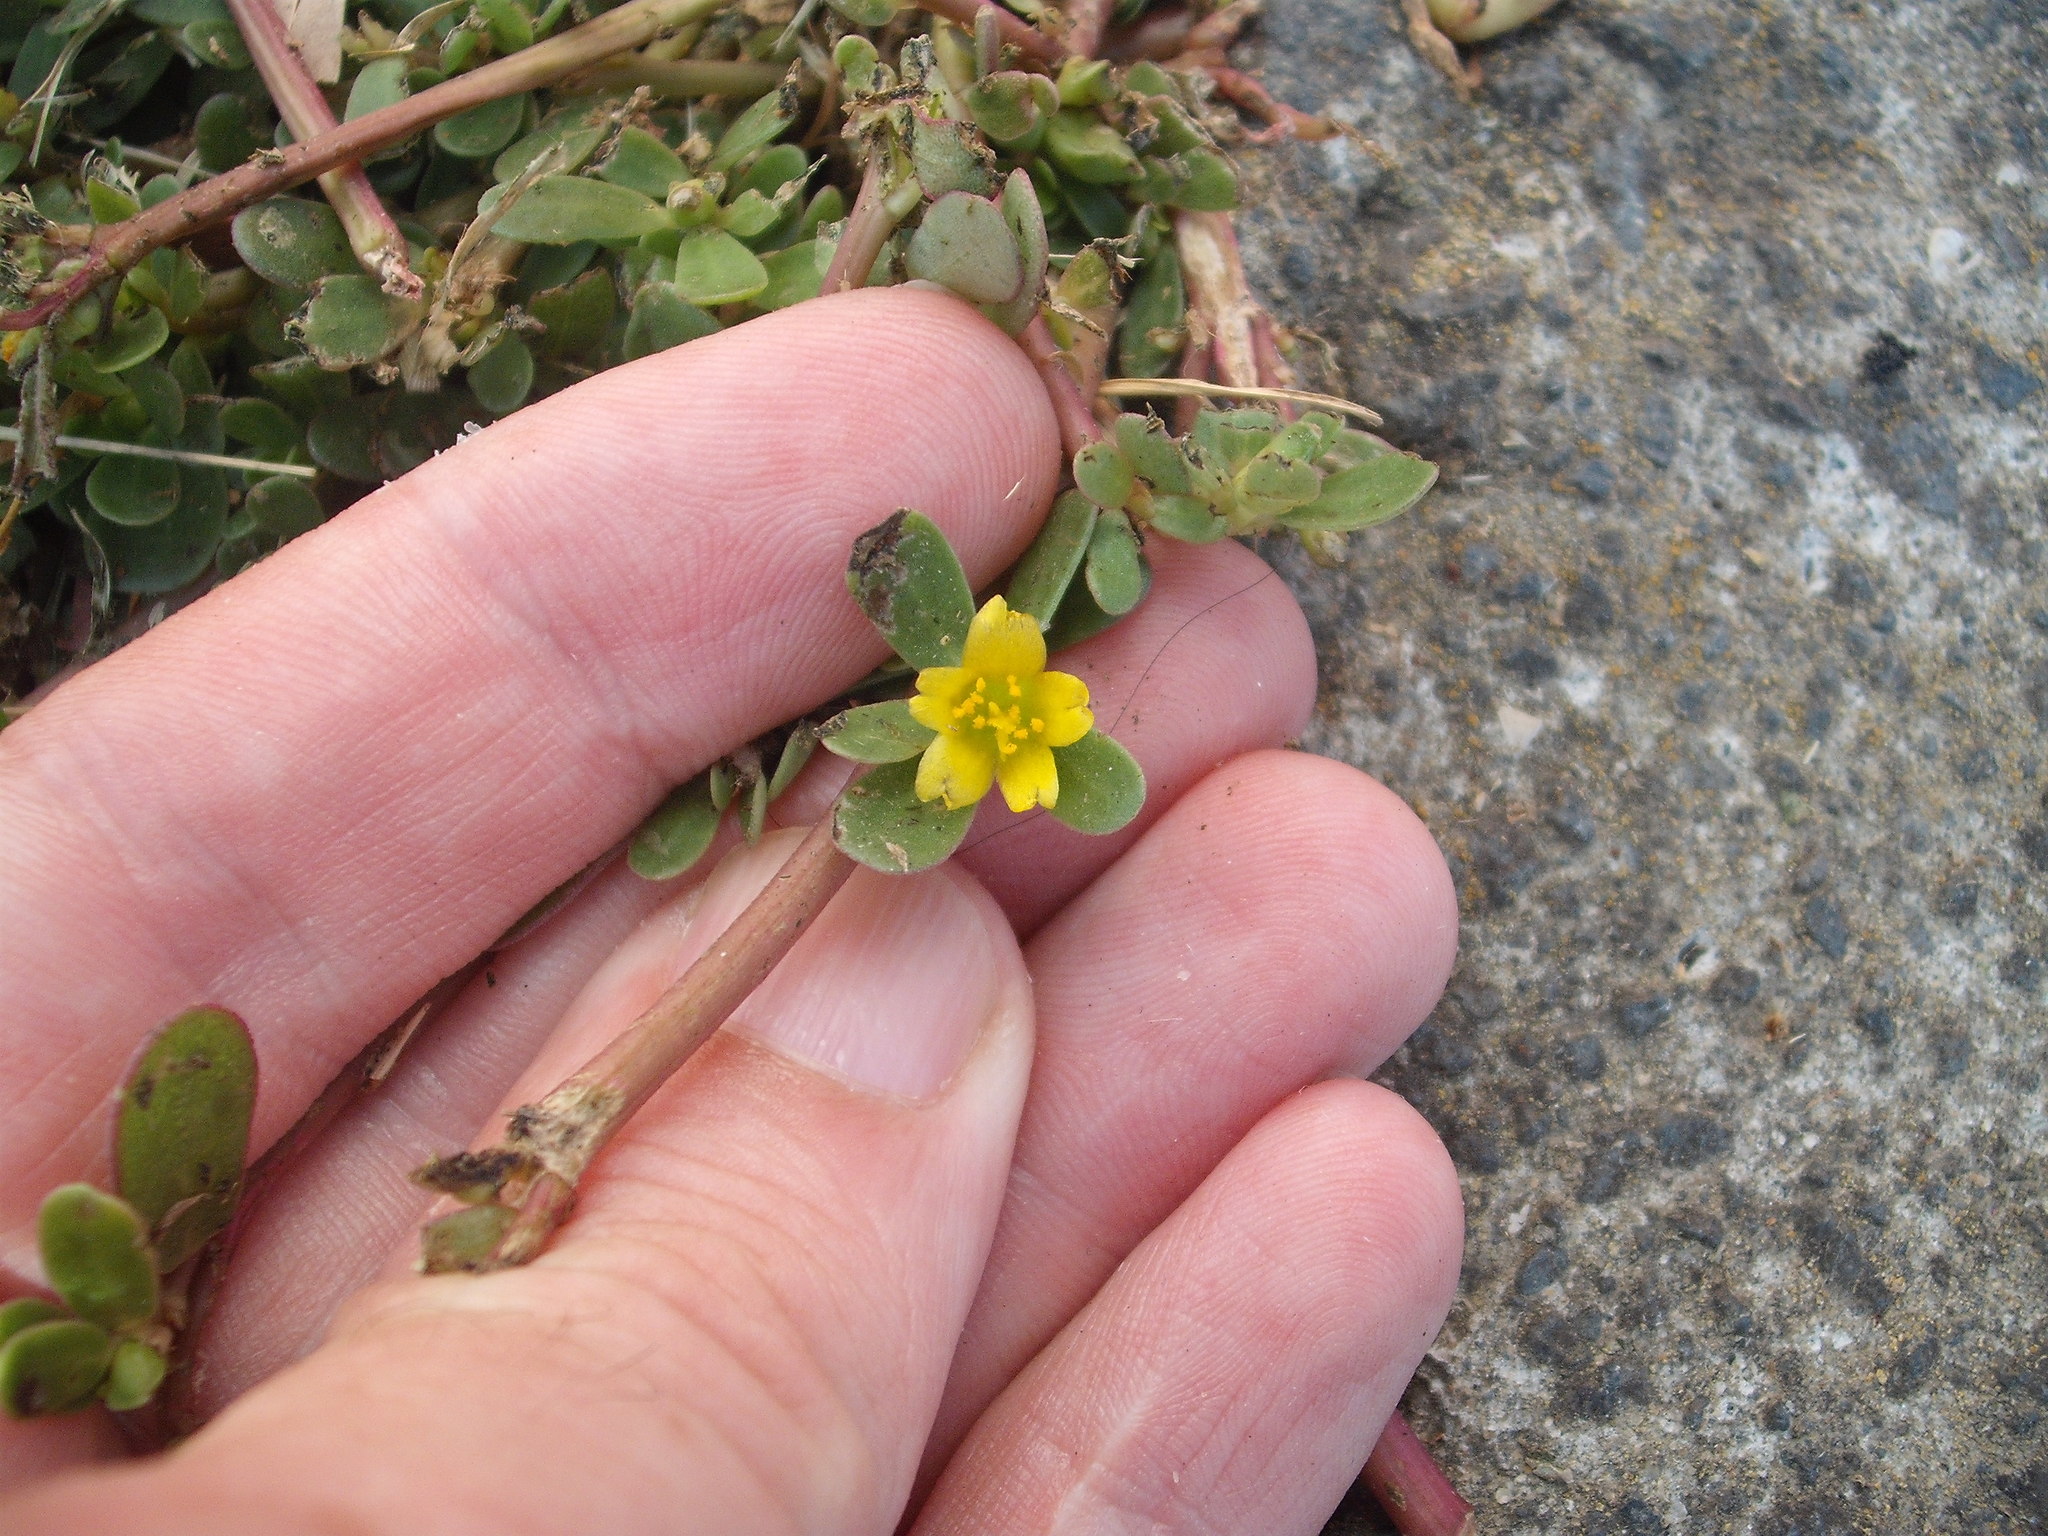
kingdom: Plantae
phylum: Tracheophyta
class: Magnoliopsida
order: Caryophyllales
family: Portulacaceae
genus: Portulaca
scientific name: Portulaca oleracea
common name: Common purslane
